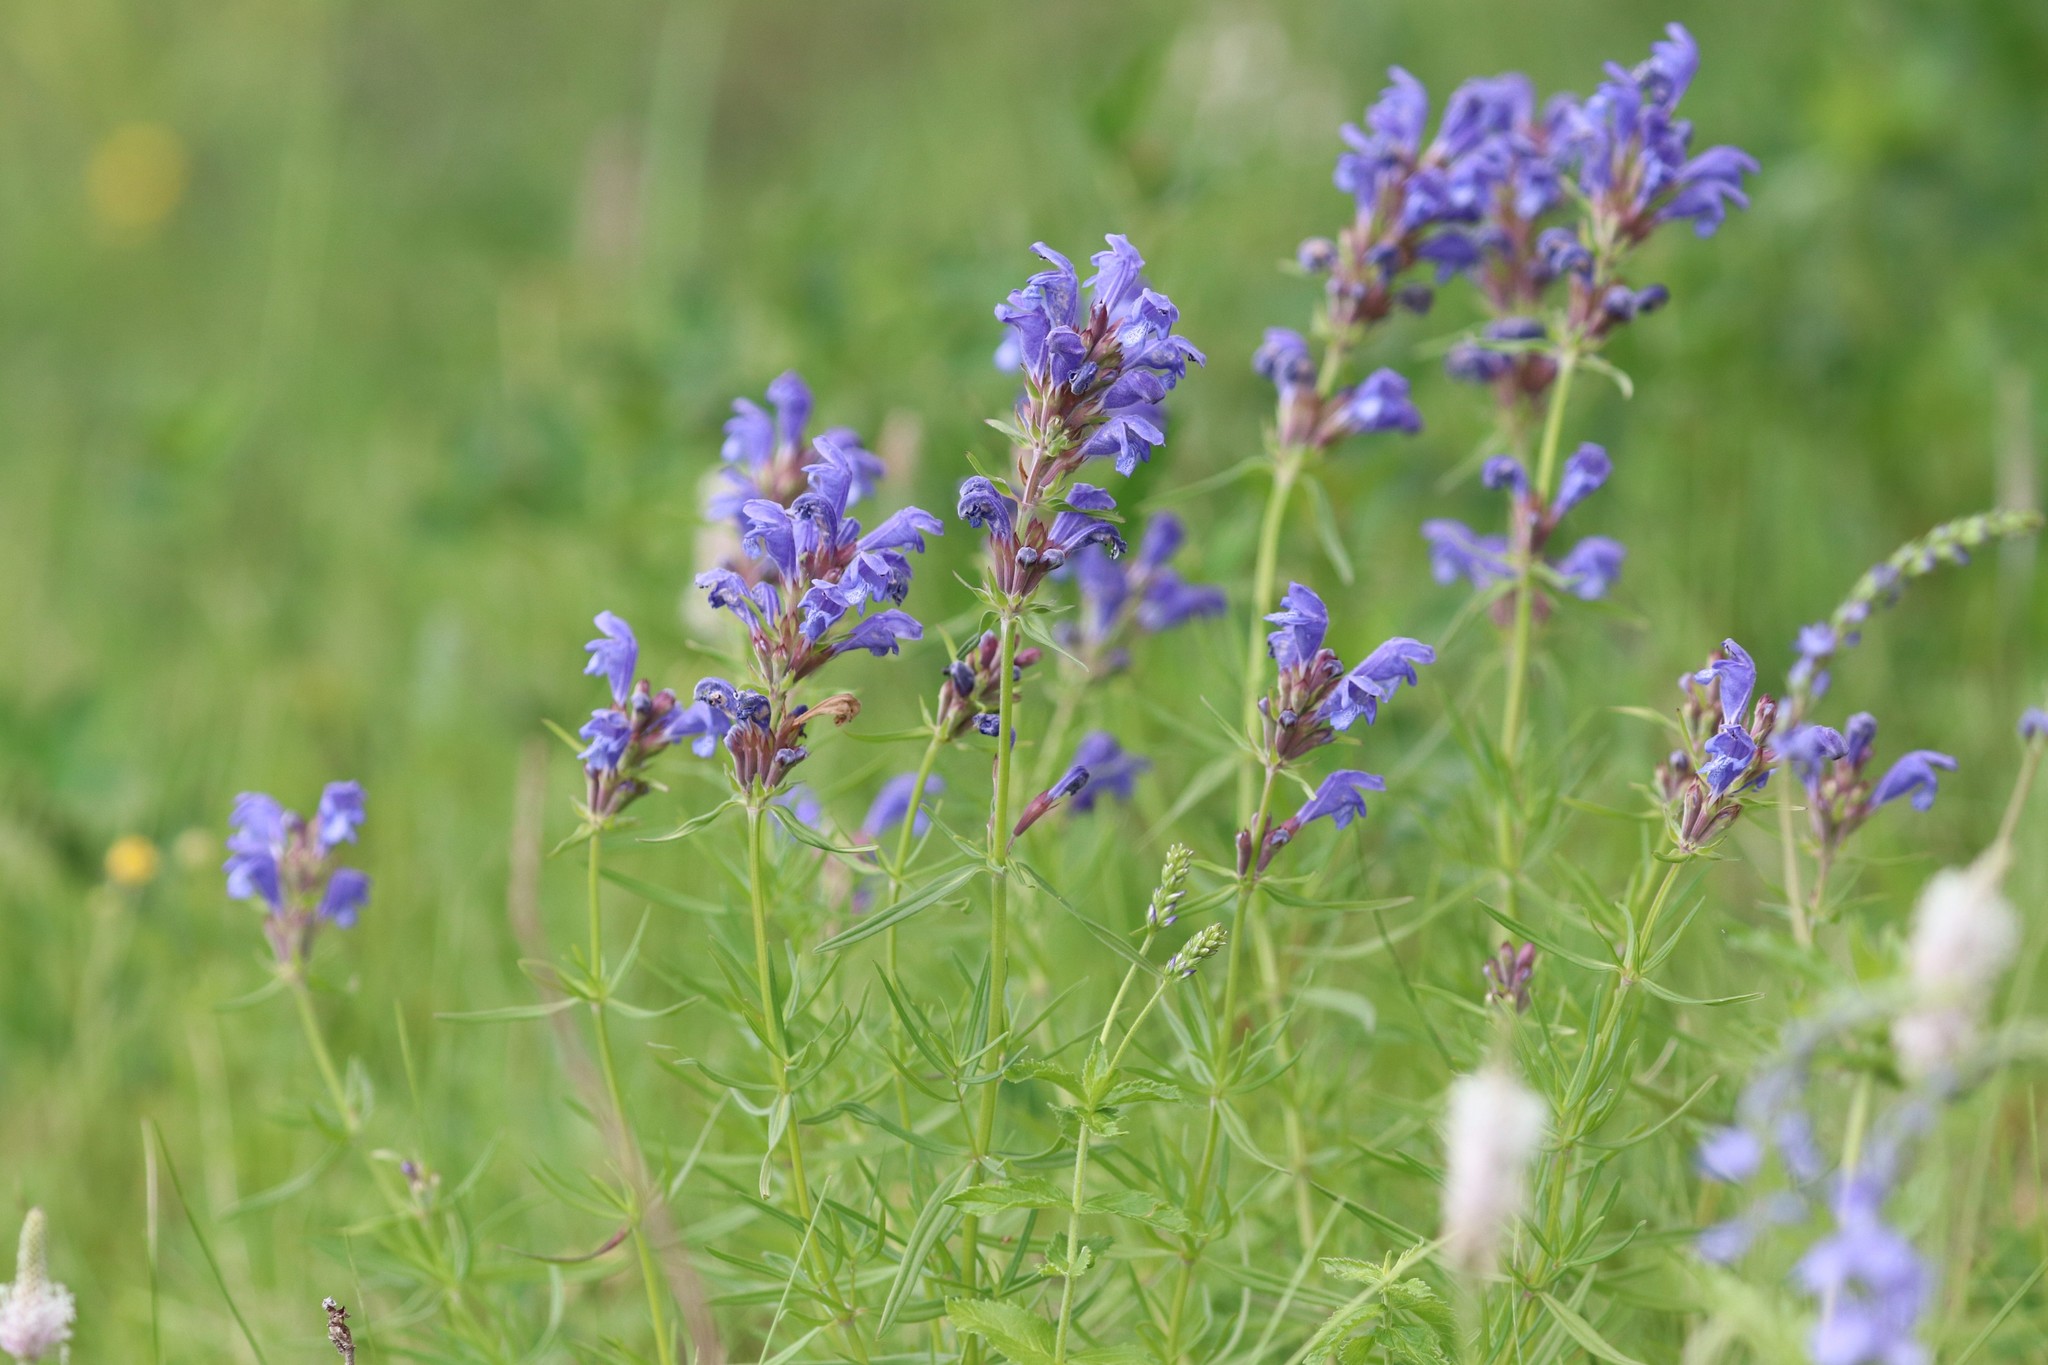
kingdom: Plantae
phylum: Tracheophyta
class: Magnoliopsida
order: Lamiales
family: Lamiaceae
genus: Dracocephalum
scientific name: Dracocephalum ruyschiana
